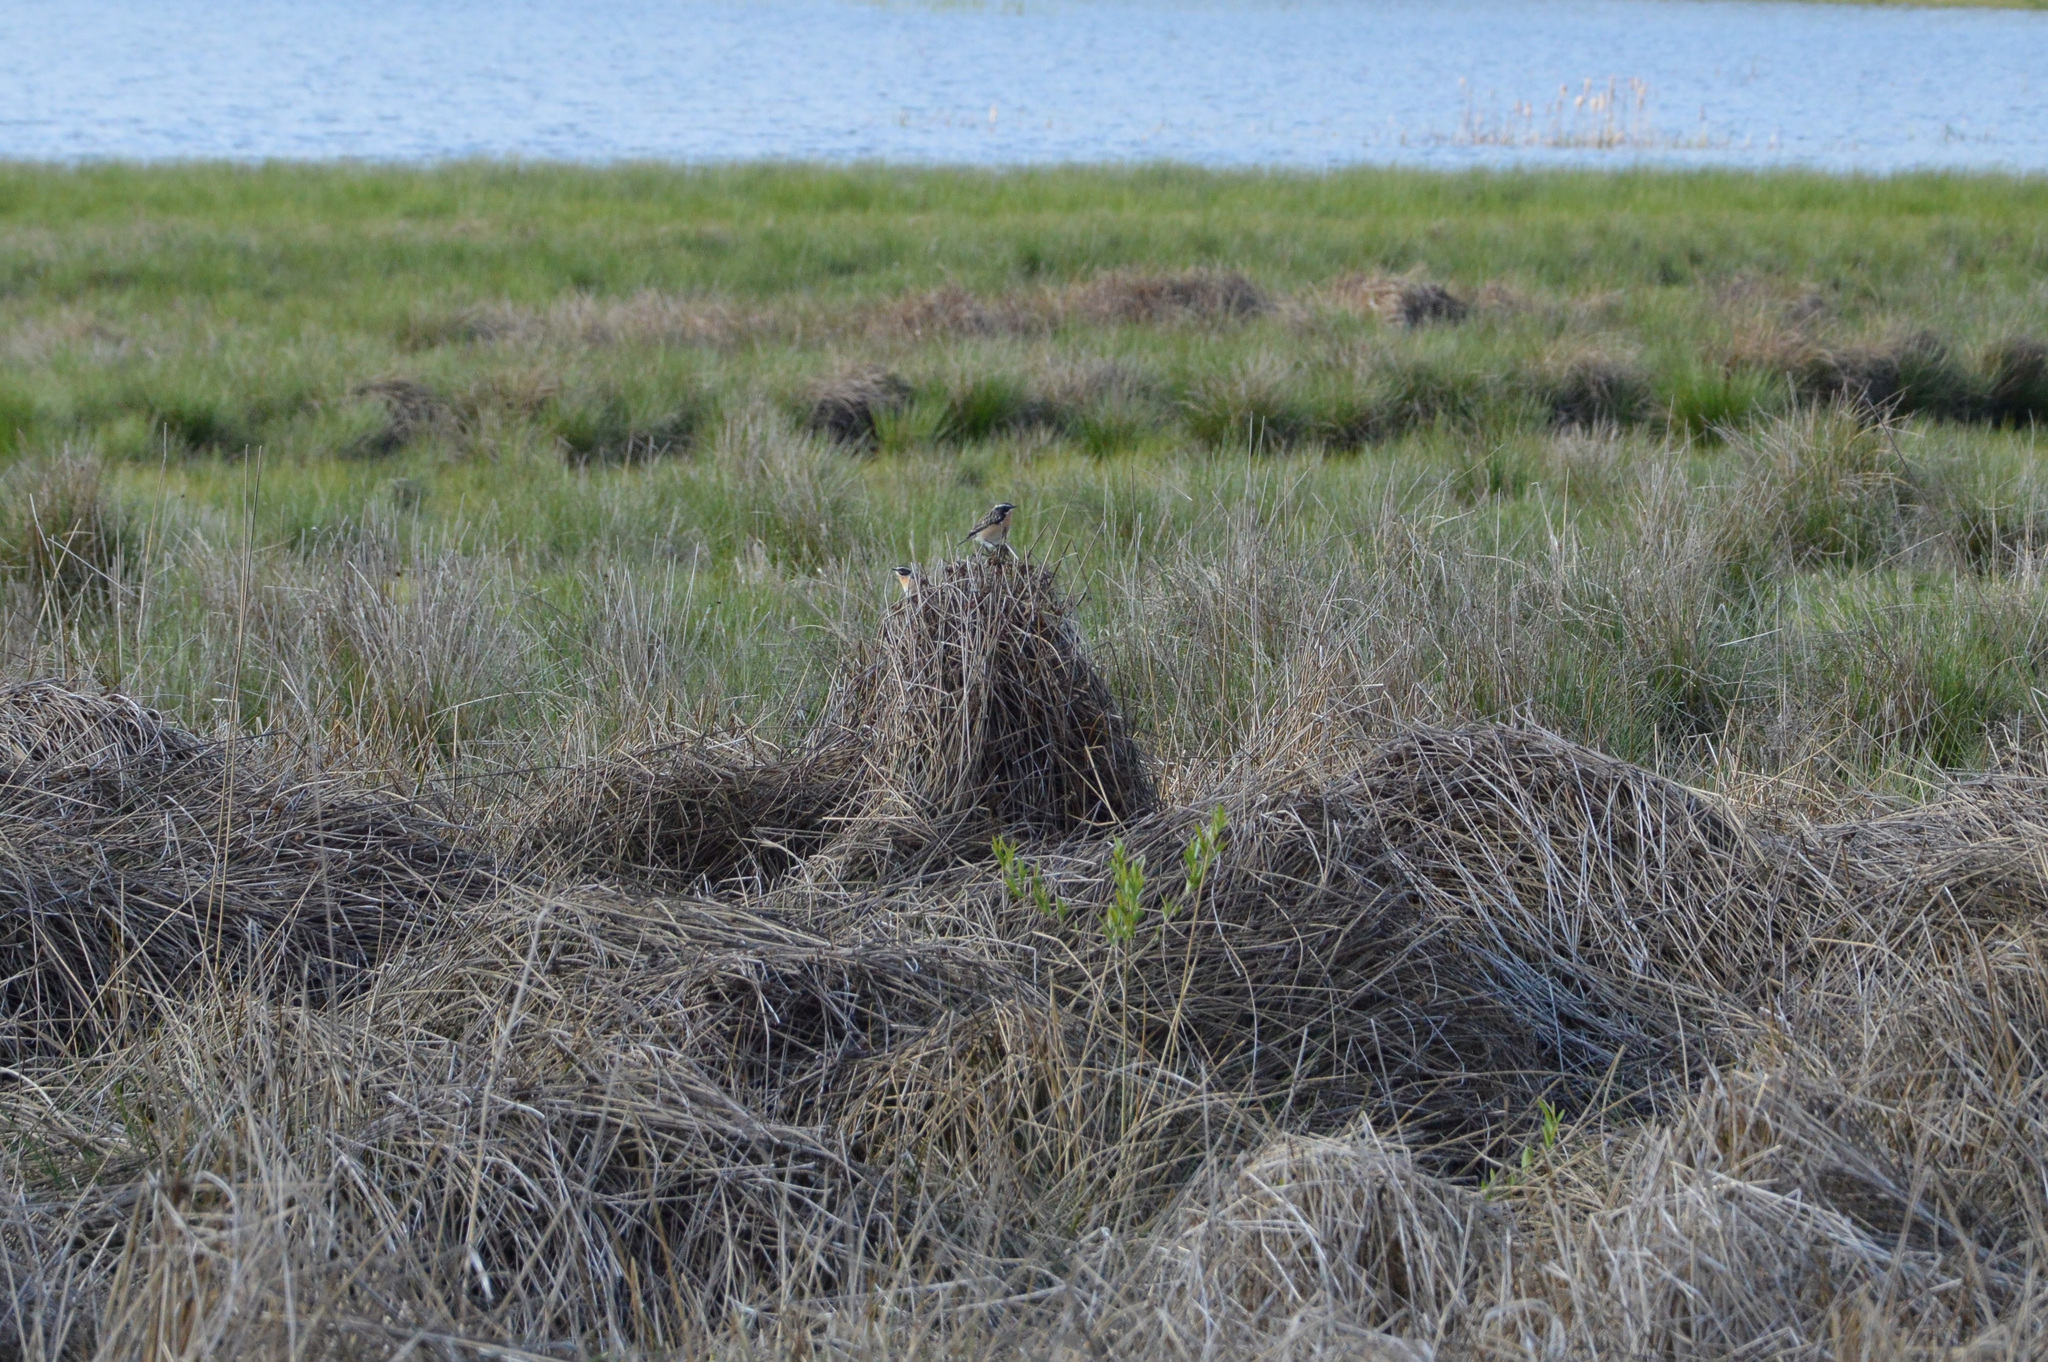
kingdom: Animalia
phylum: Chordata
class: Aves
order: Passeriformes
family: Muscicapidae
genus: Saxicola
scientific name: Saxicola rubetra
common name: Whinchat
